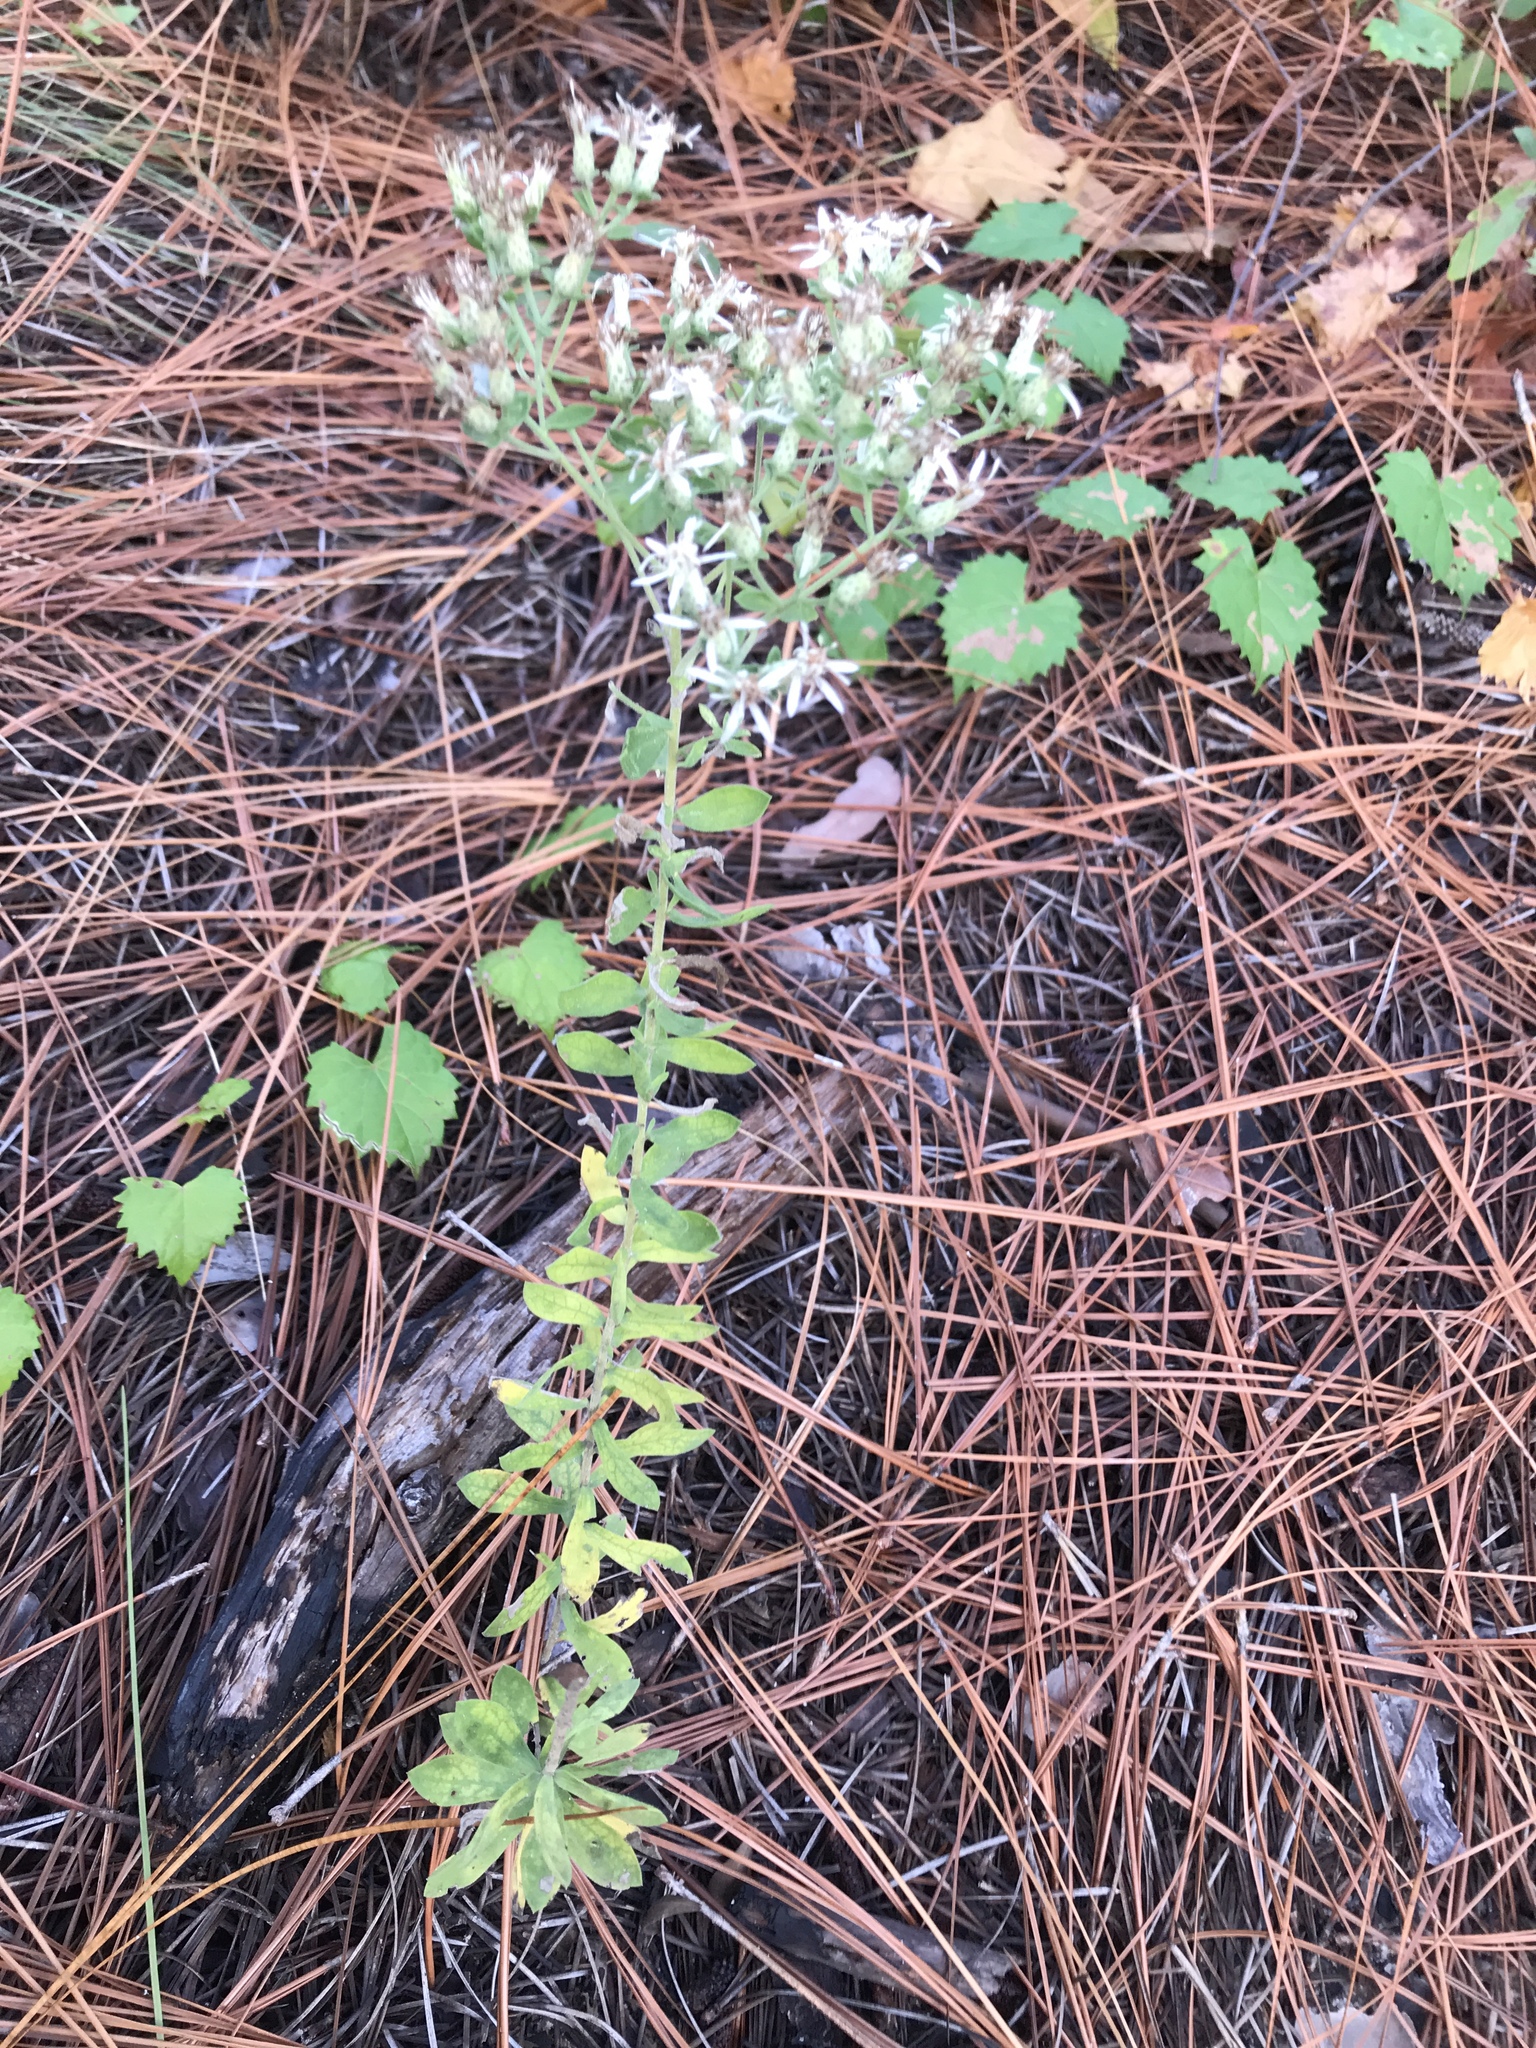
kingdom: Plantae
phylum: Tracheophyta
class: Magnoliopsida
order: Asterales
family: Asteraceae
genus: Sericocarpus
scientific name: Sericocarpus tortifolius
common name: Dixie aster
